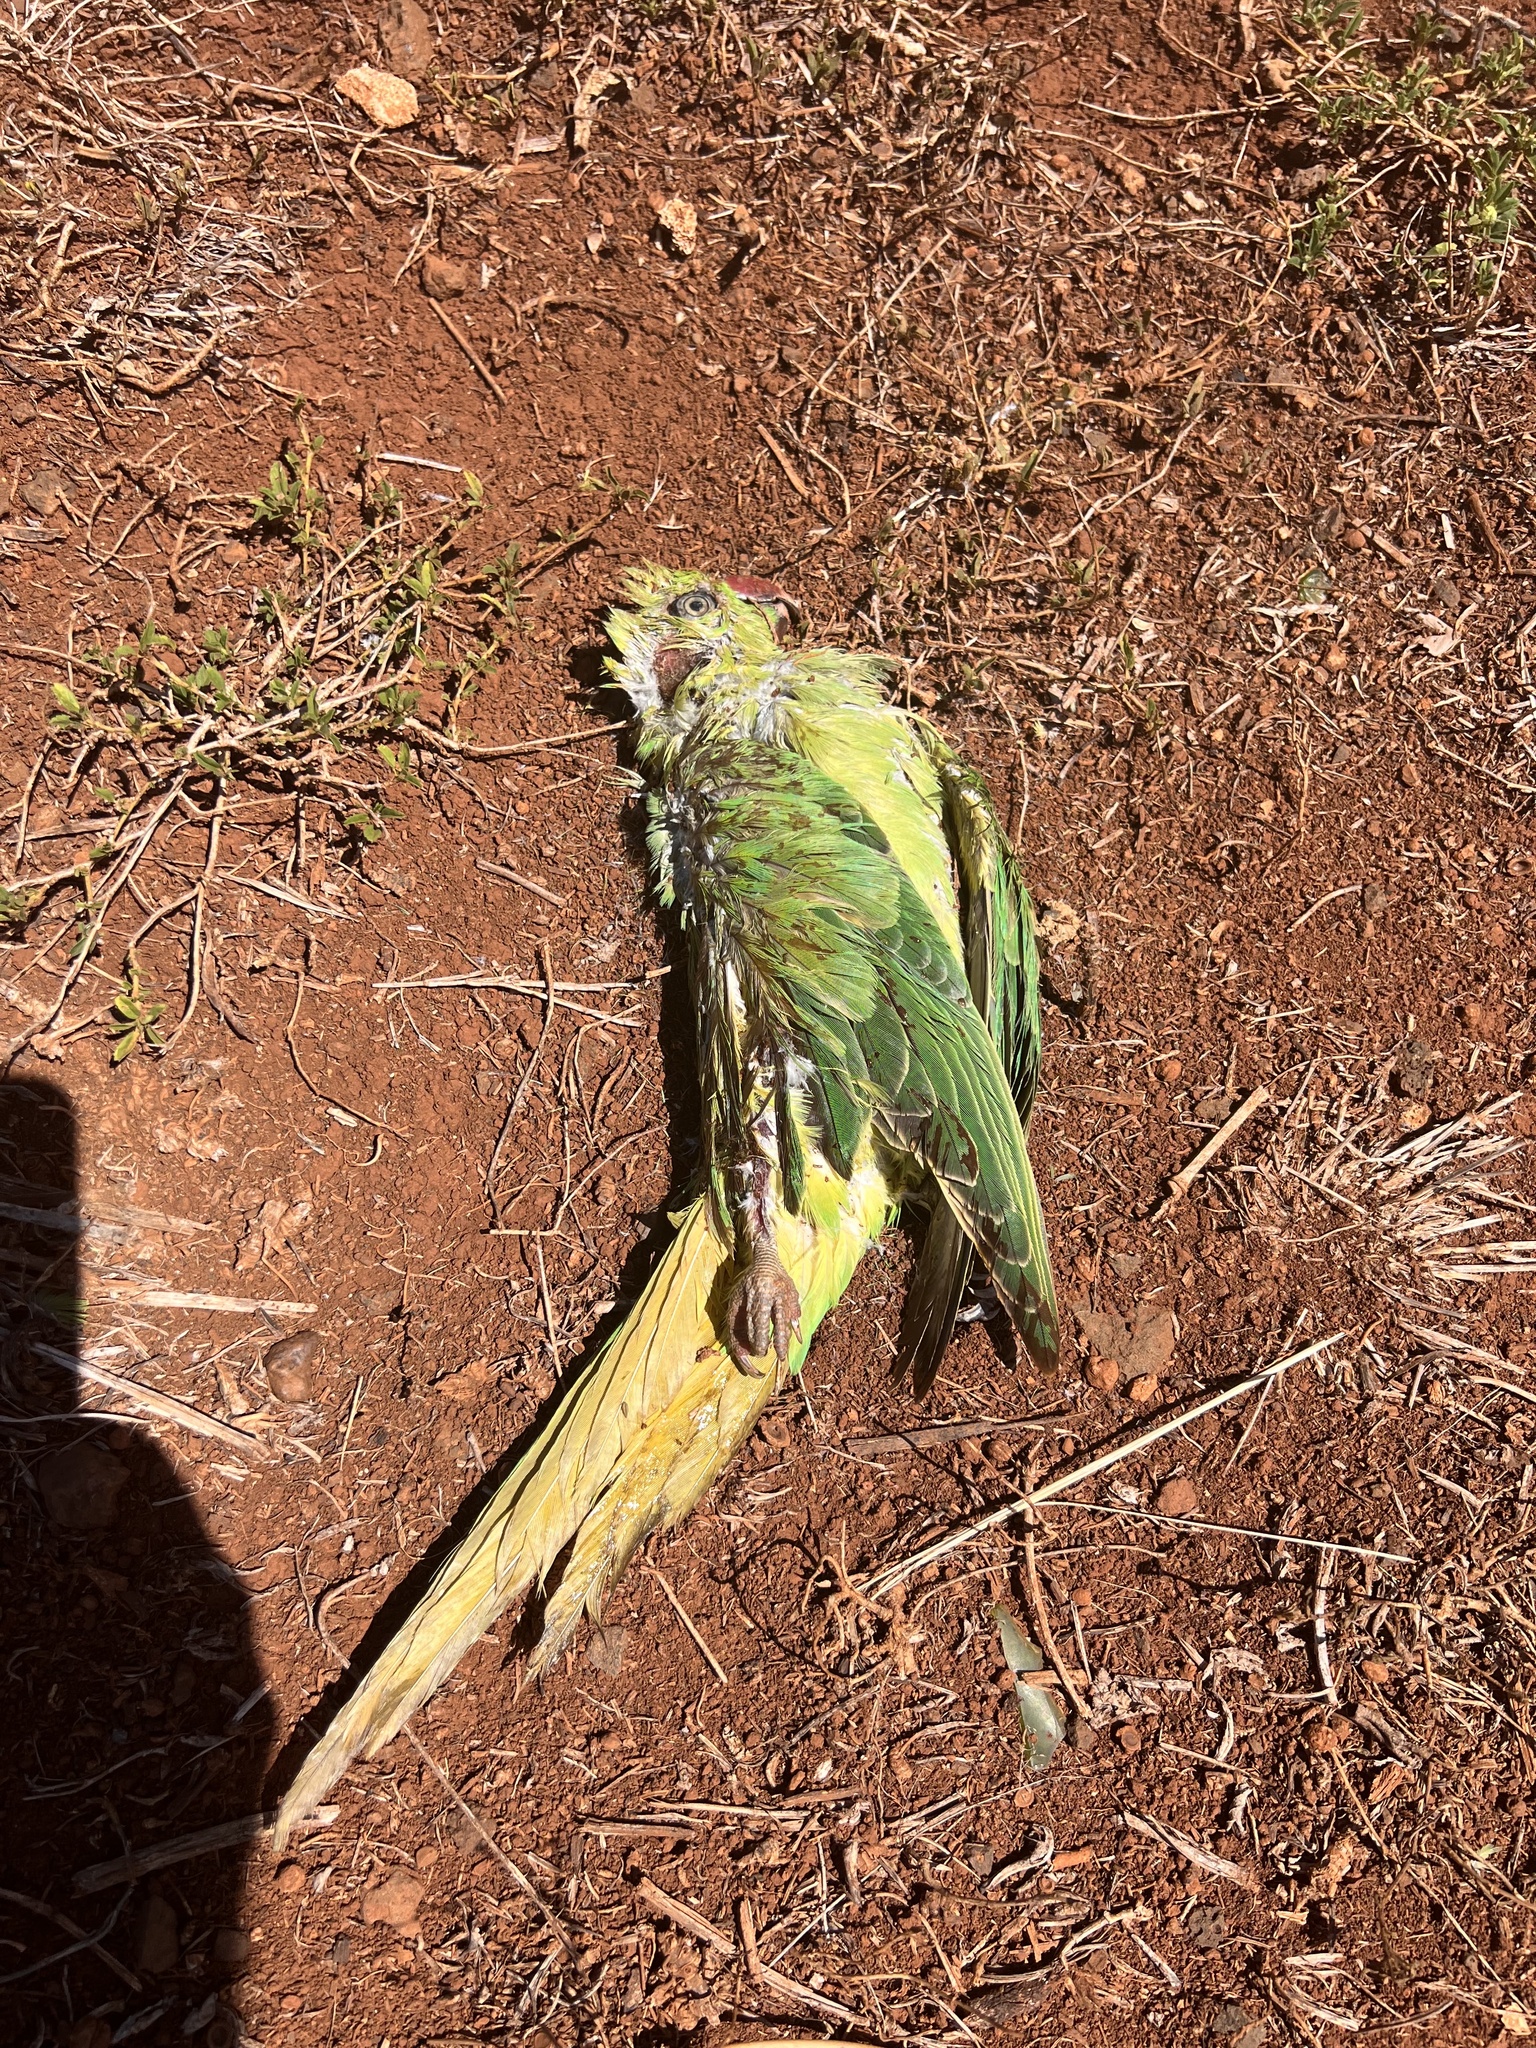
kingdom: Animalia
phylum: Chordata
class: Aves
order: Psittaciformes
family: Psittacidae
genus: Psittacula
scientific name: Psittacula krameri
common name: Rose-ringed parakeet
